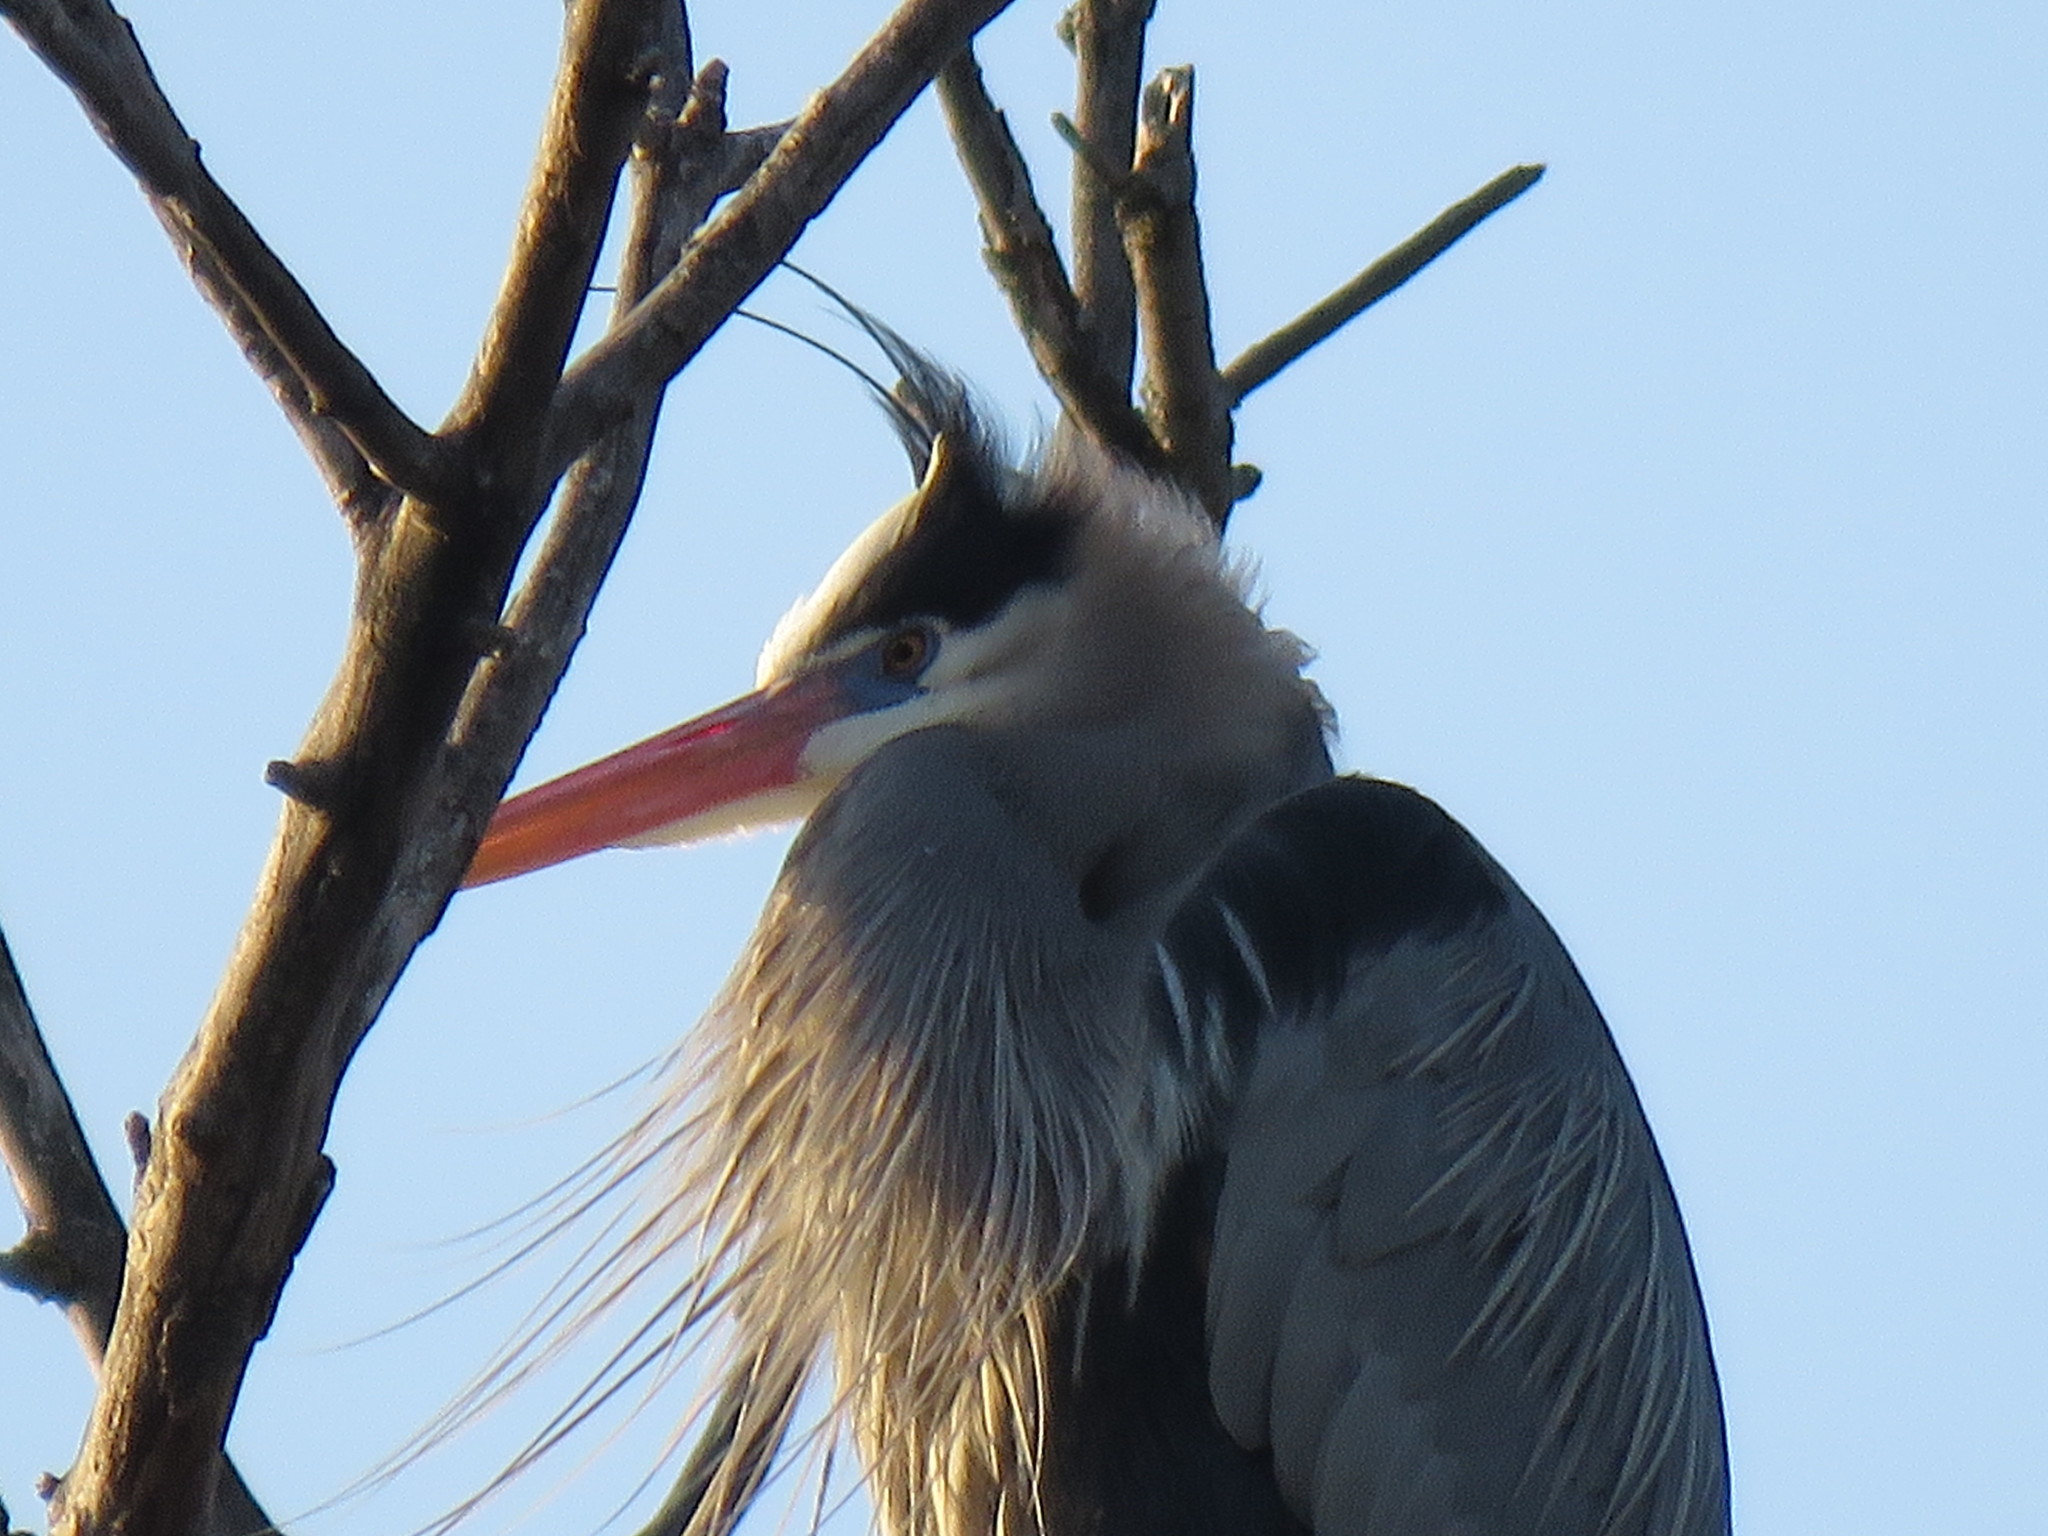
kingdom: Animalia
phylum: Chordata
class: Aves
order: Pelecaniformes
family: Ardeidae
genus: Ardea
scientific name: Ardea herodias
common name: Great blue heron
